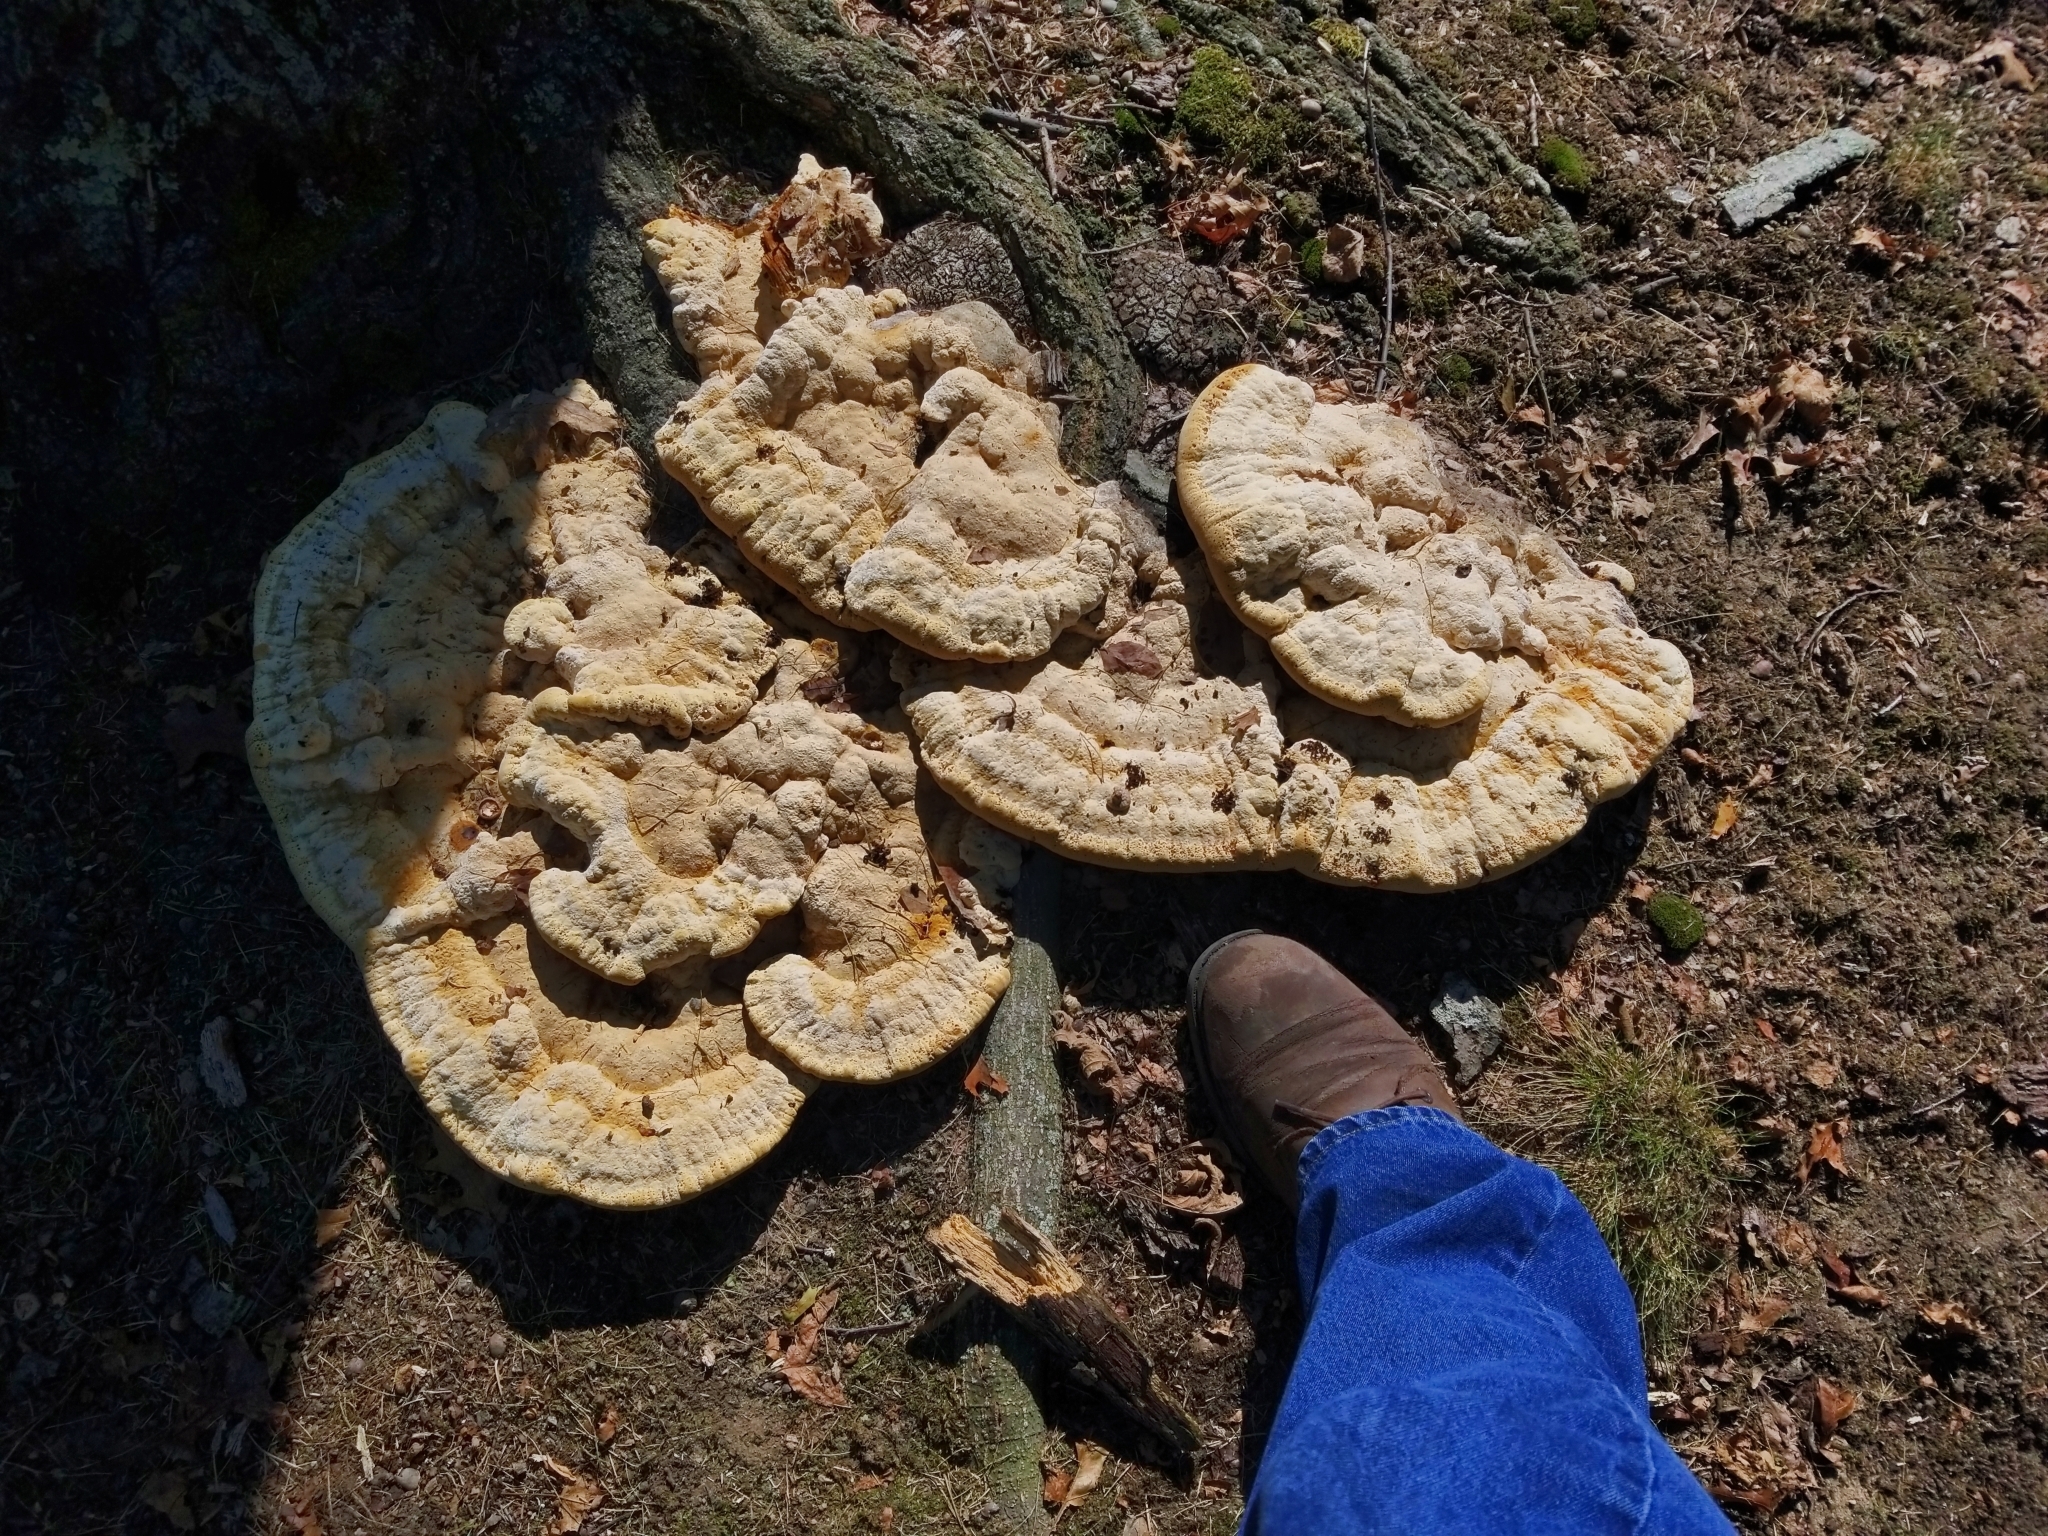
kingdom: Fungi
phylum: Basidiomycota
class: Agaricomycetes
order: Hymenochaetales
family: Hymenochaetaceae
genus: Pseudoinonotus
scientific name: Pseudoinonotus dryadeus
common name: Oak bracket
